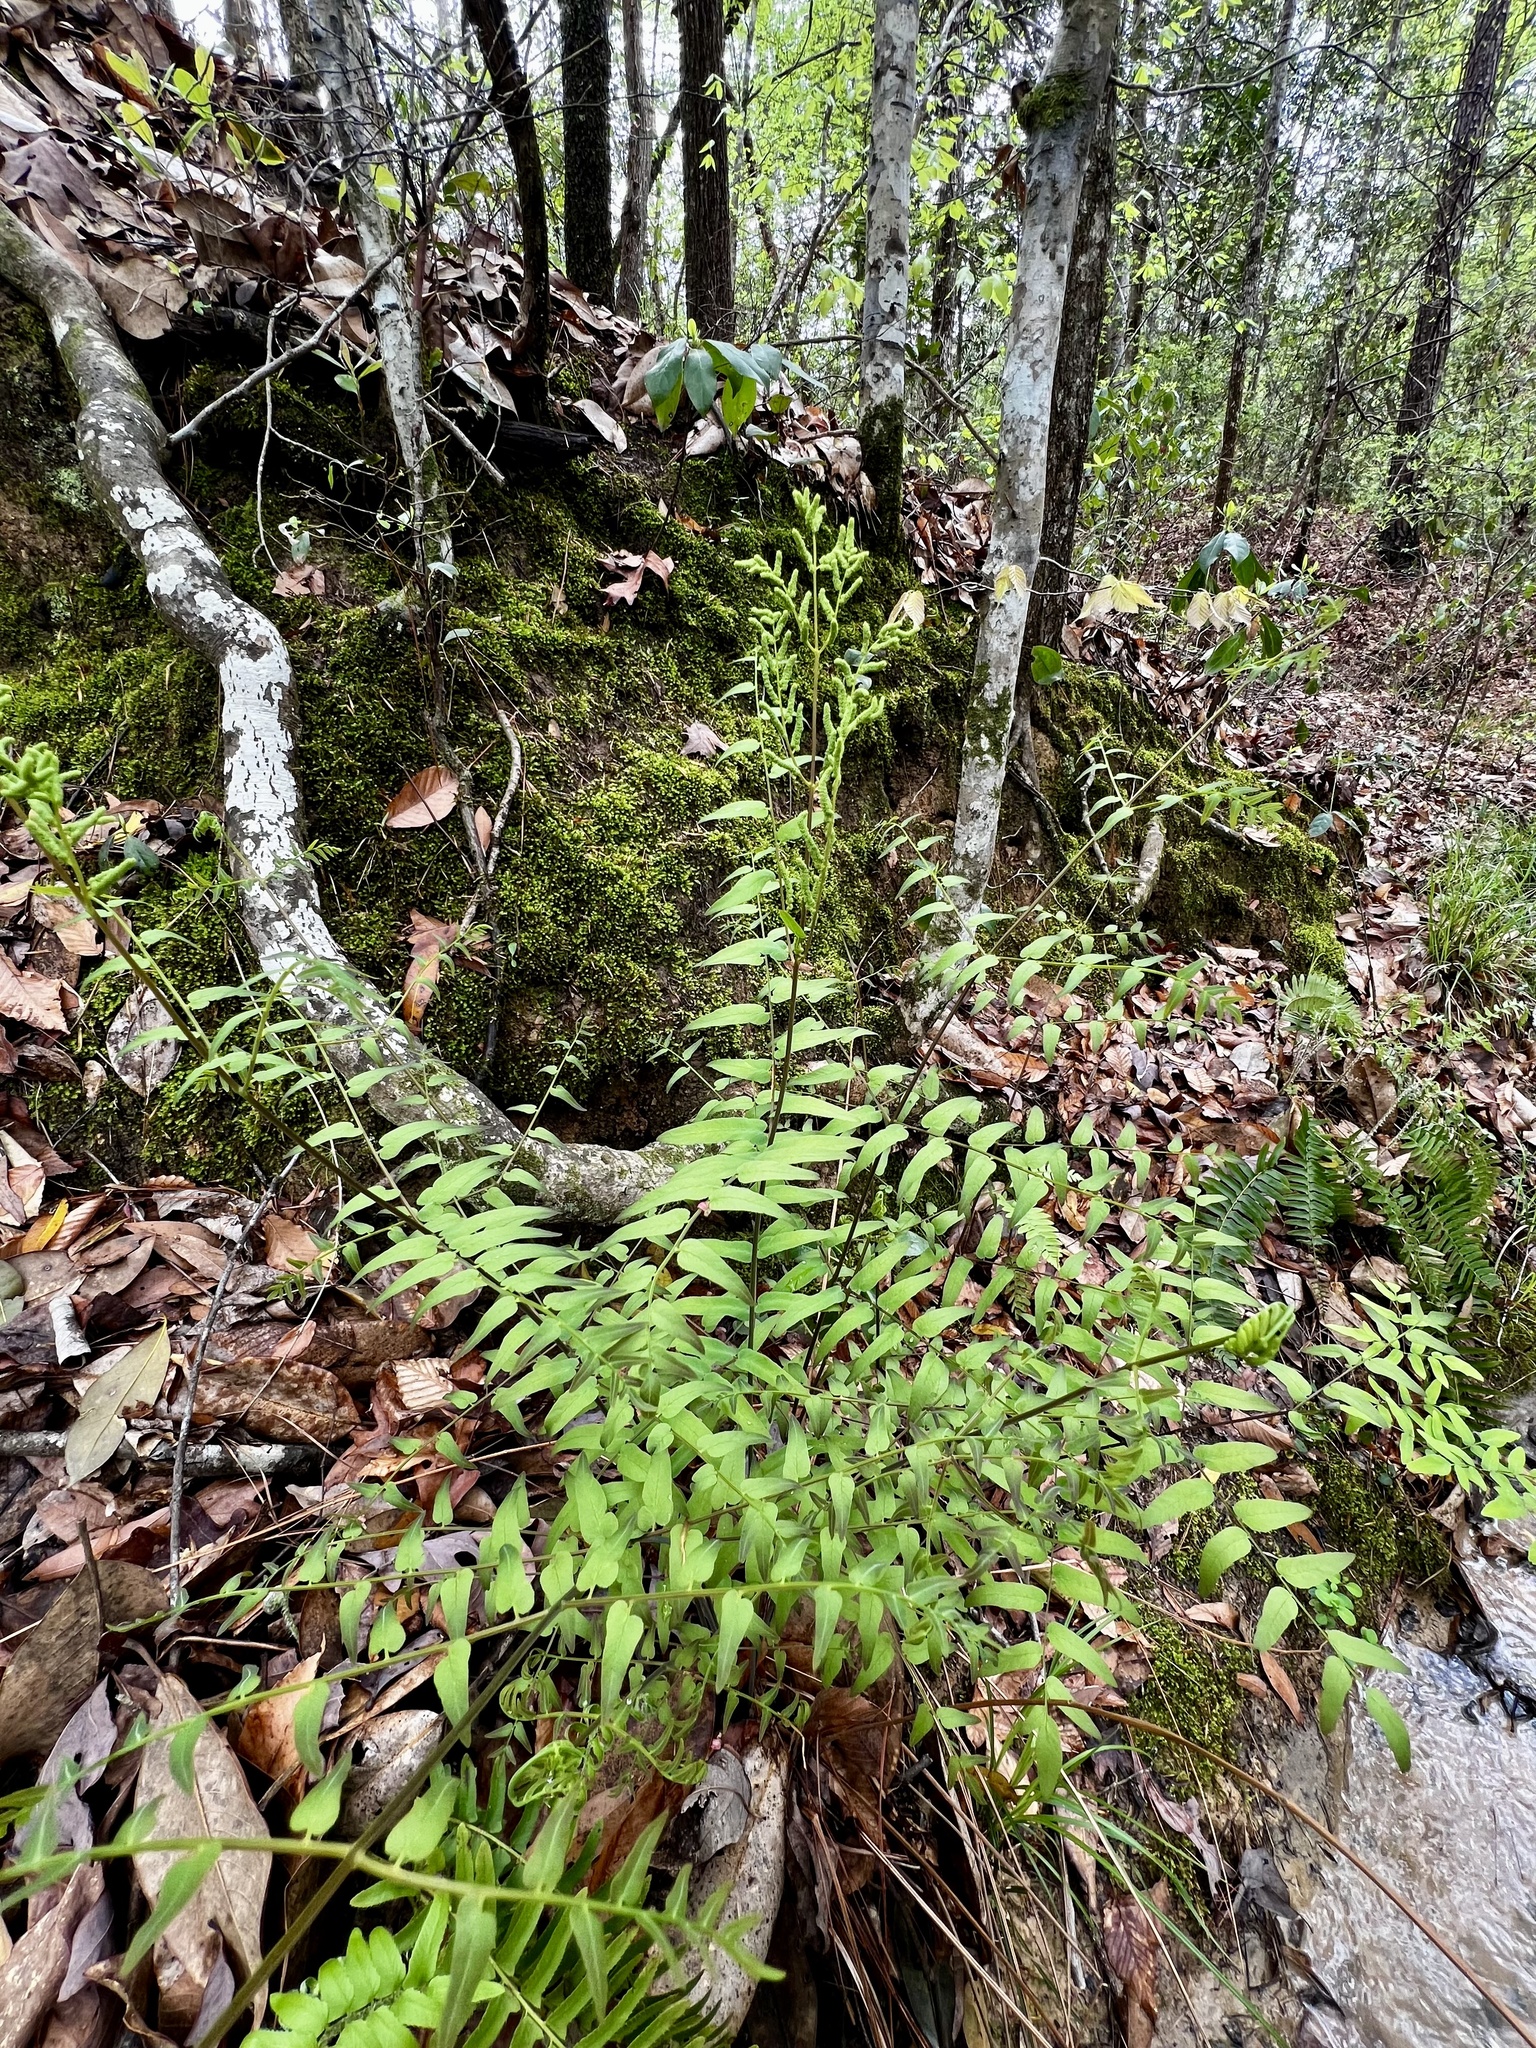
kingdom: Plantae
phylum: Tracheophyta
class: Polypodiopsida
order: Osmundales
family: Osmundaceae
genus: Osmunda
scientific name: Osmunda spectabilis
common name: American royal fern
